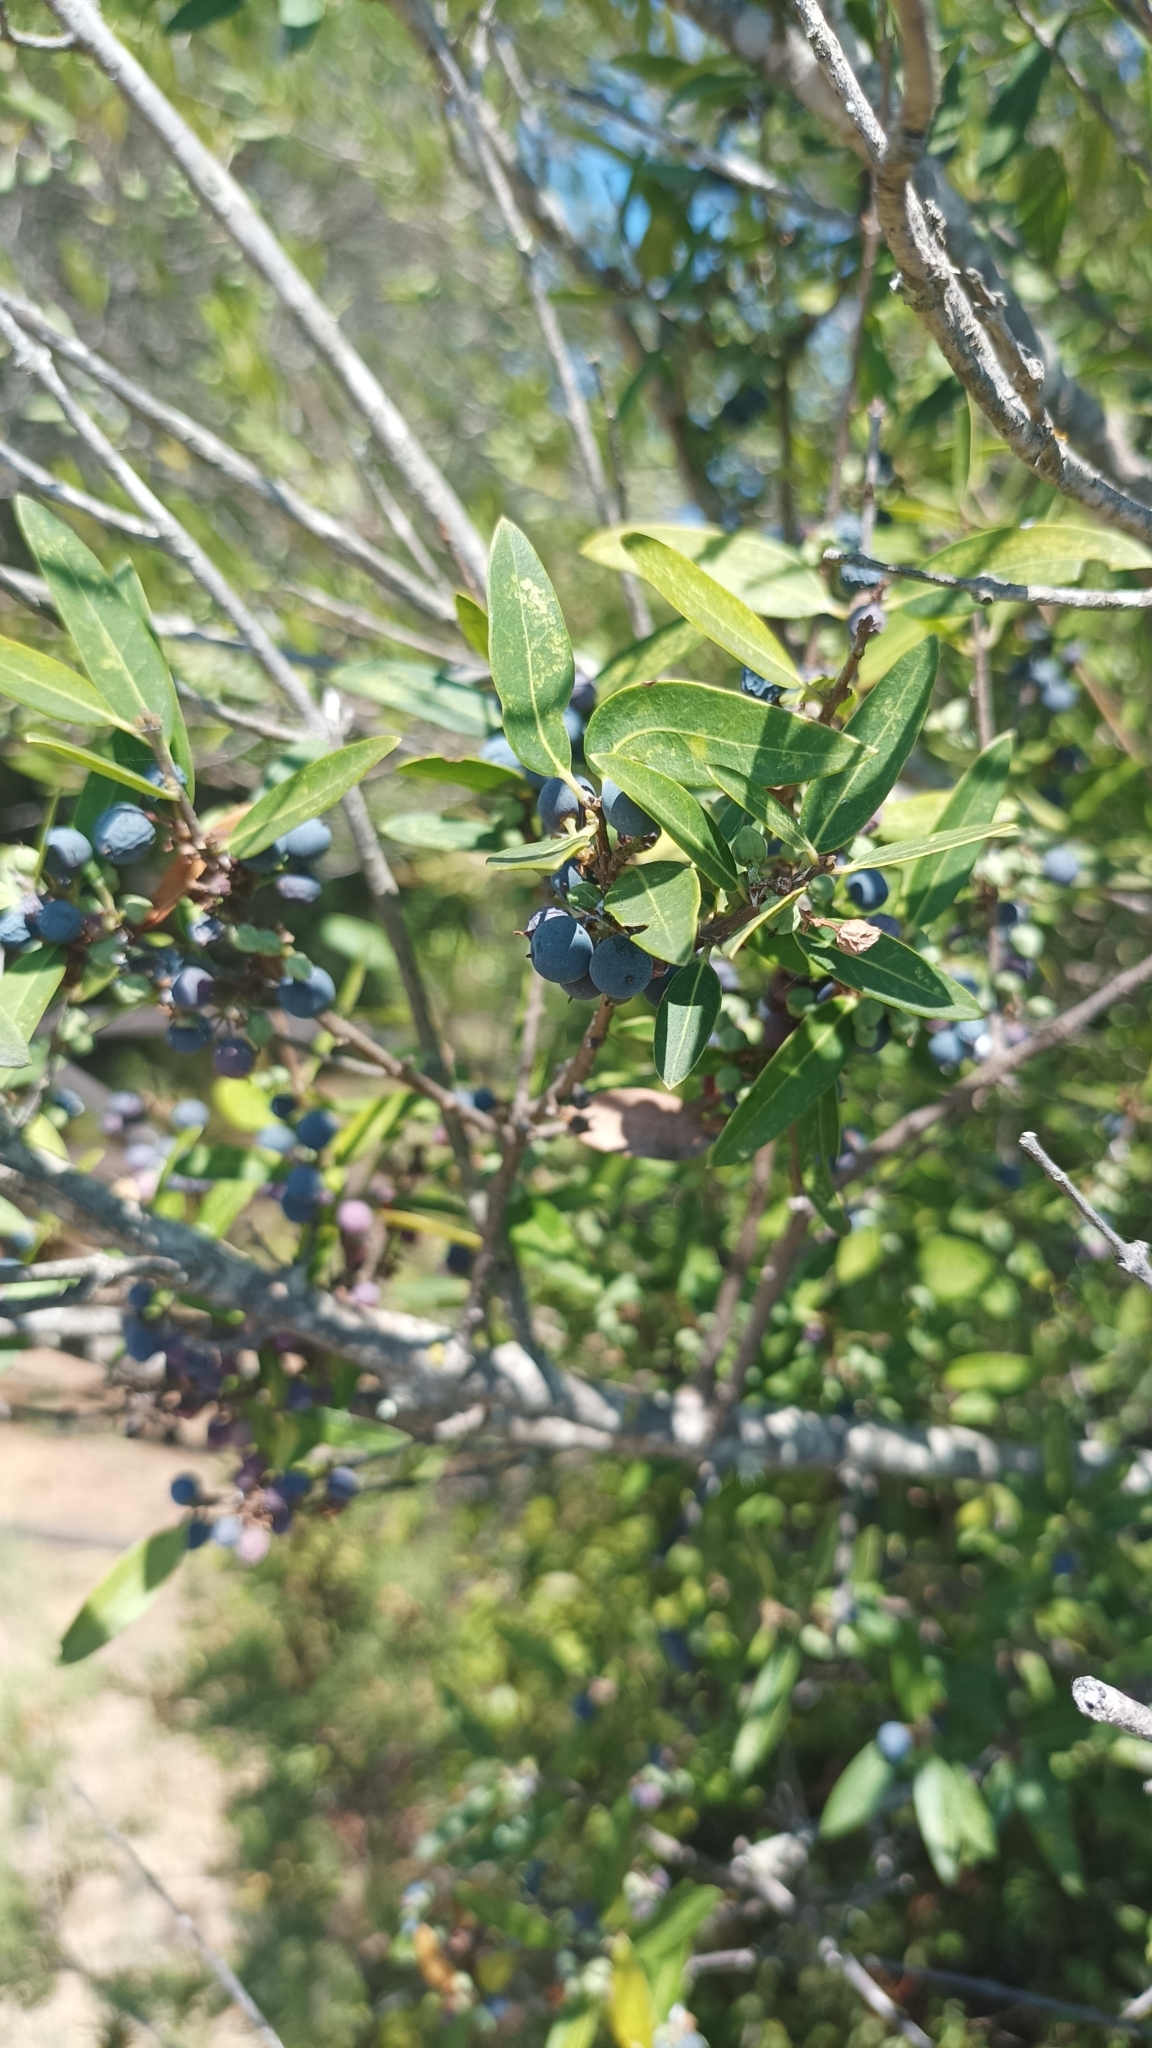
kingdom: Plantae
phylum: Tracheophyta
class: Magnoliopsida
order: Myrtales
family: Myrtaceae
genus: Myrtus
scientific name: Myrtus communis
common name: Myrtle
